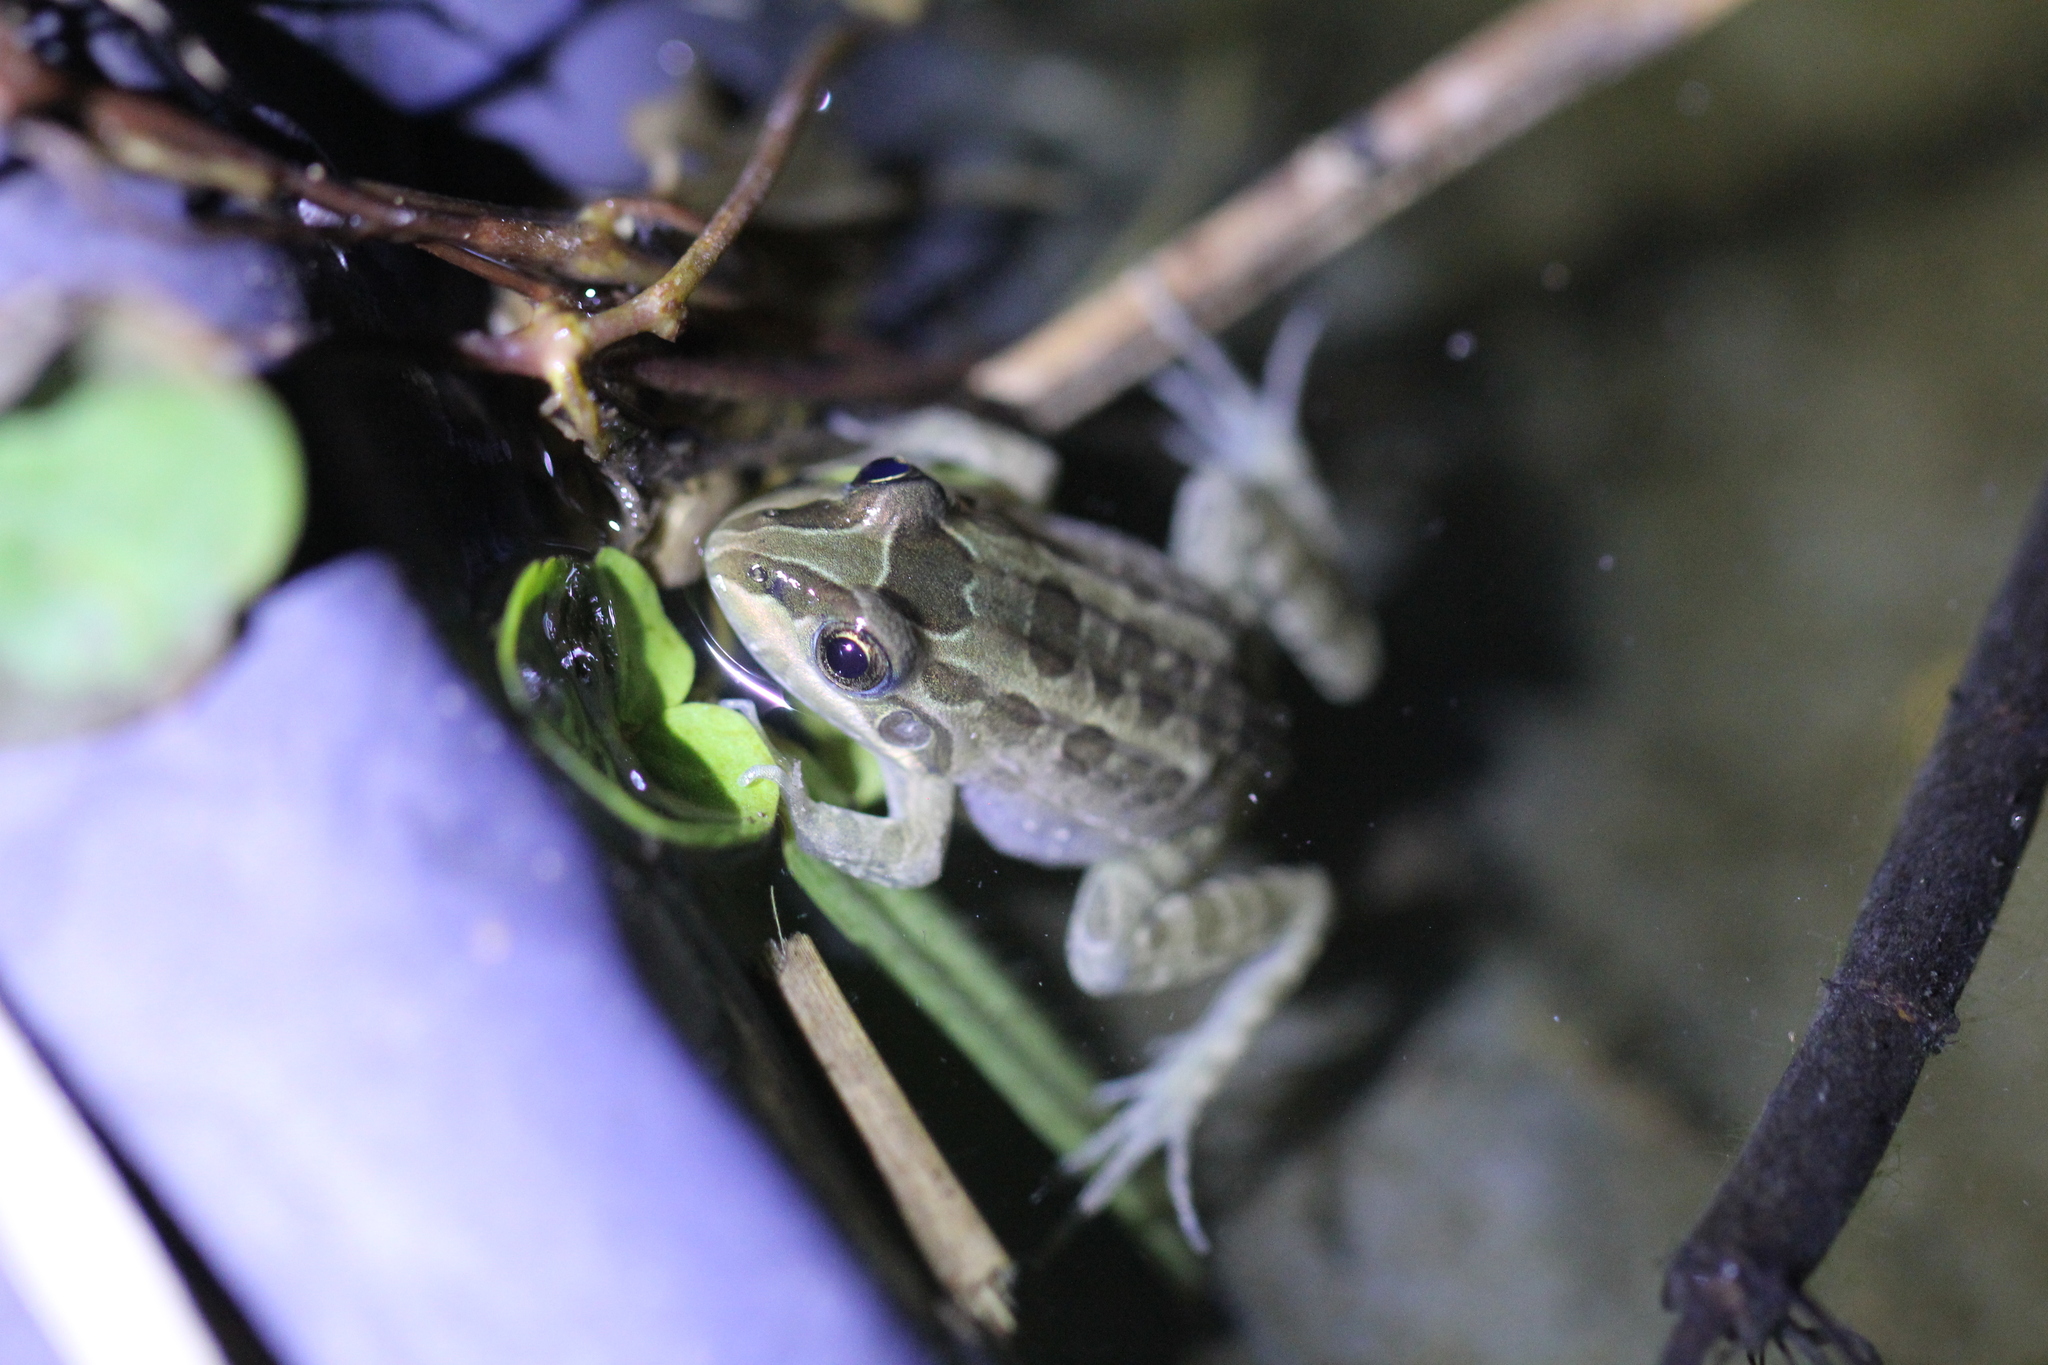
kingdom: Animalia
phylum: Chordata
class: Amphibia
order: Anura
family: Leptodactylidae
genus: Leptodactylus
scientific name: Leptodactylus luctator
